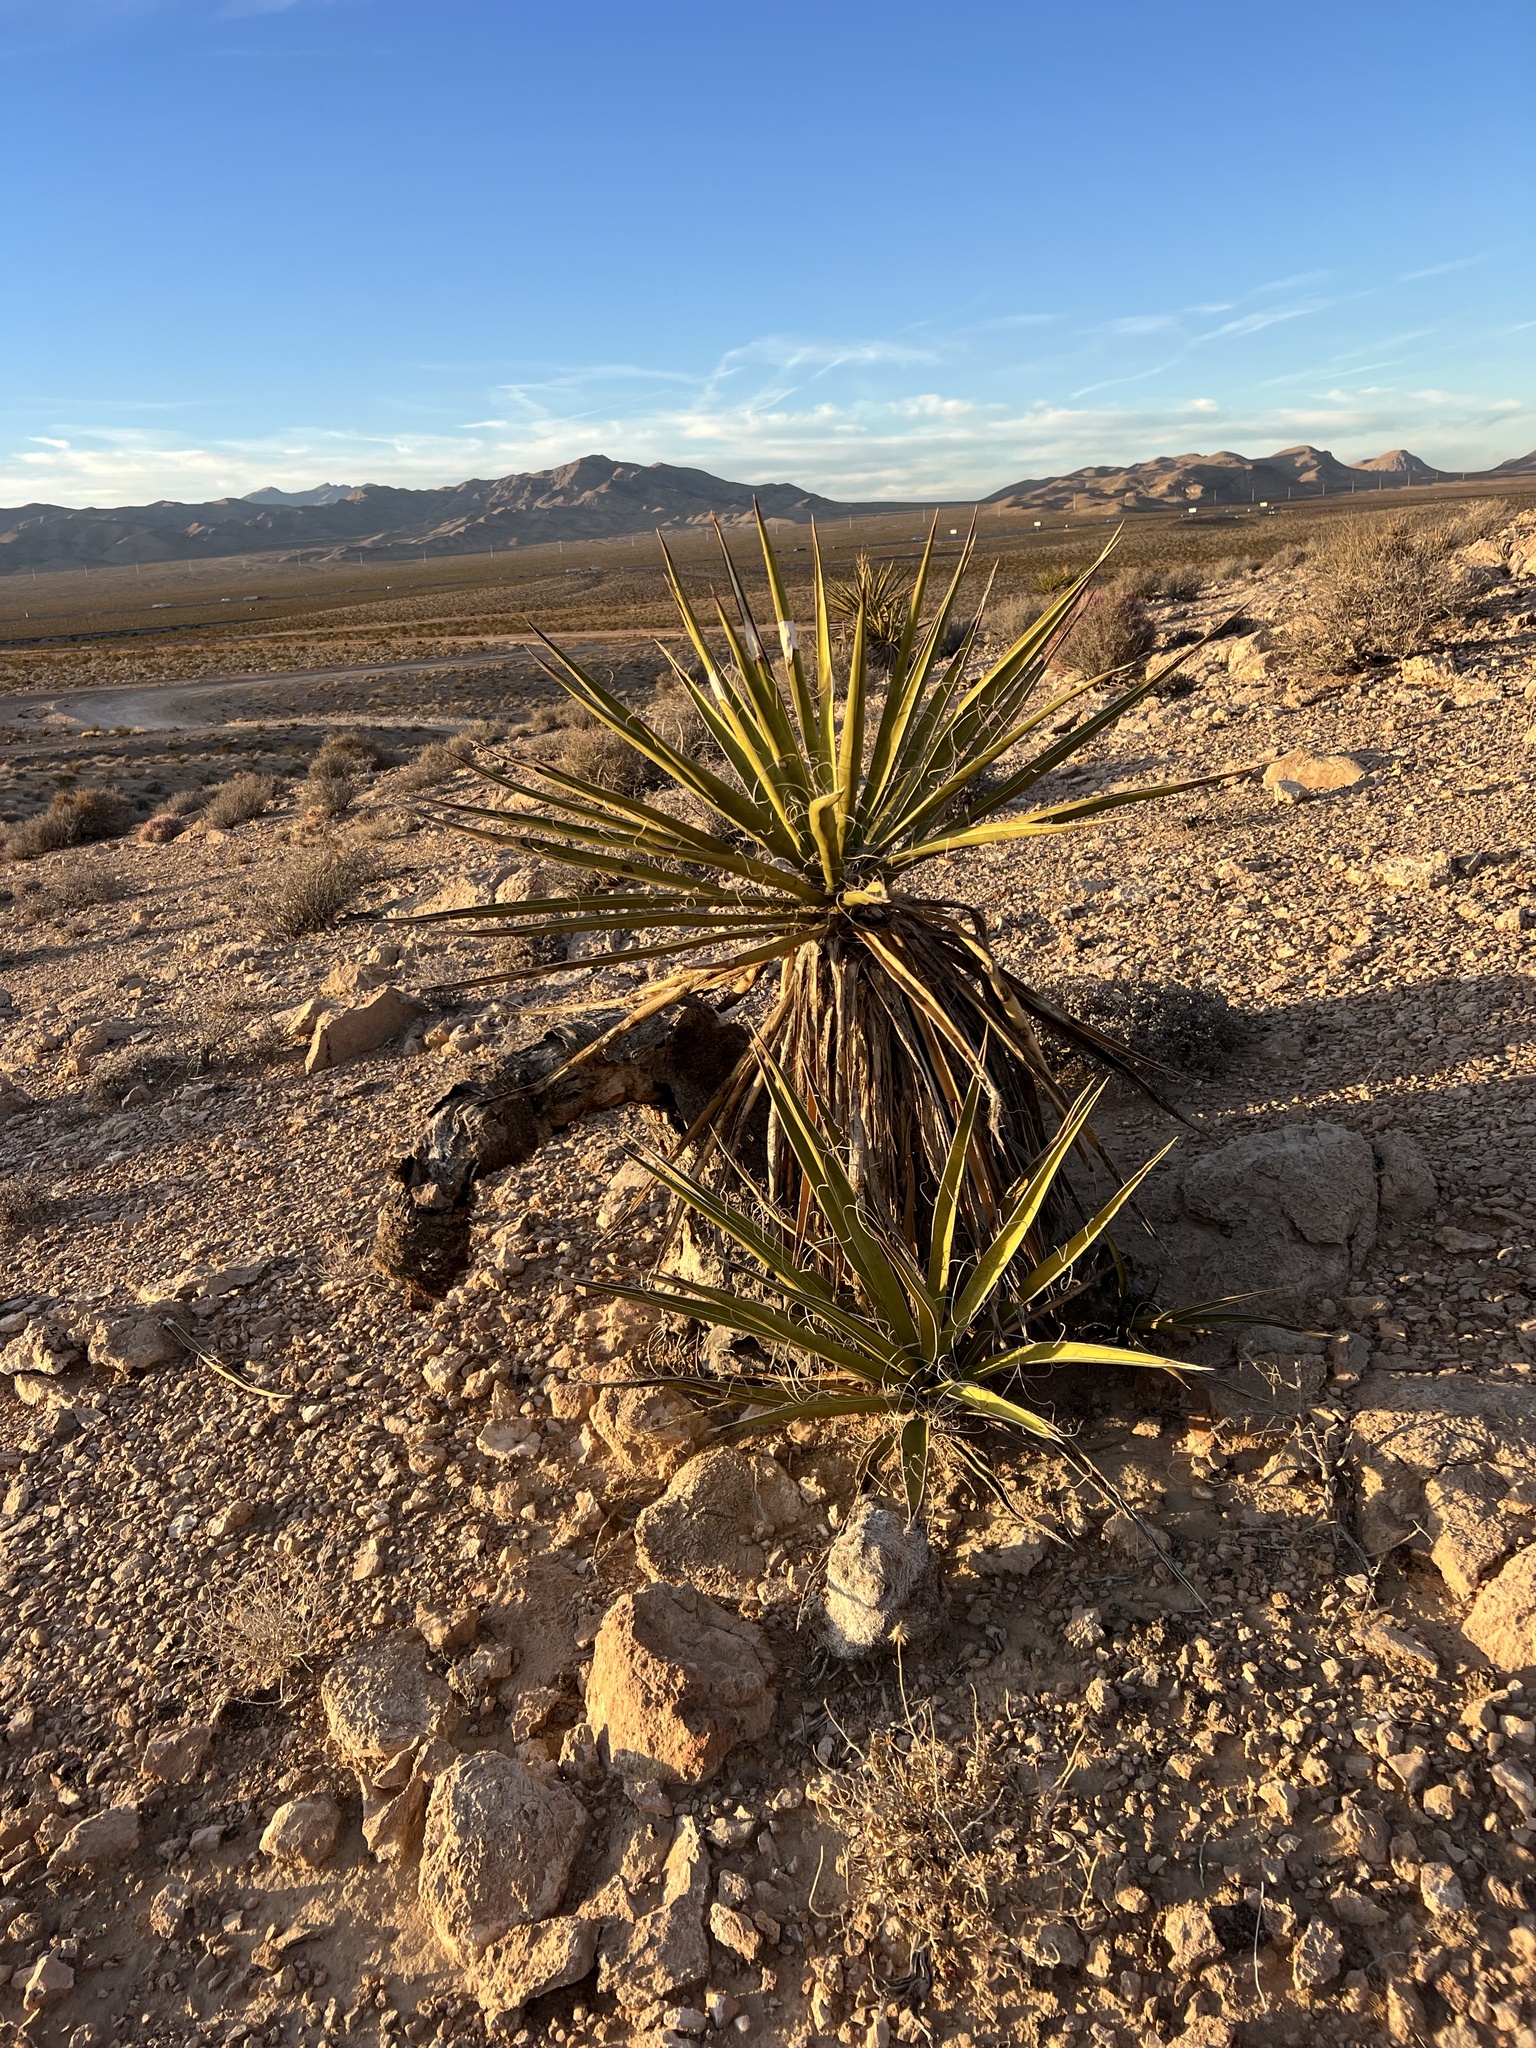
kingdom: Plantae
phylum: Tracheophyta
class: Liliopsida
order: Asparagales
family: Asparagaceae
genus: Yucca
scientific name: Yucca schidigera
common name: Mojave yucca
